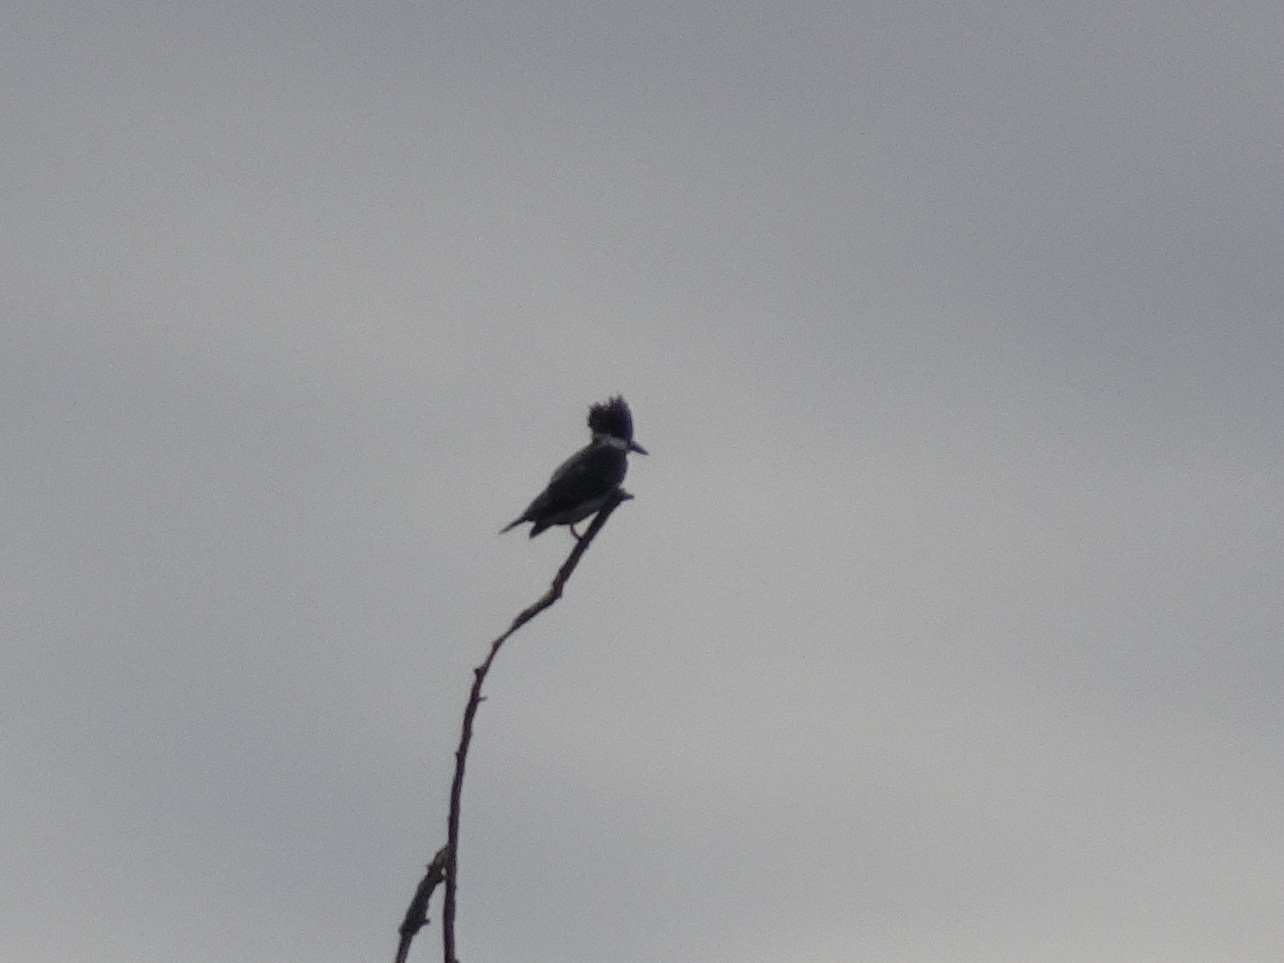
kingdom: Animalia
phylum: Chordata
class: Aves
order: Coraciiformes
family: Alcedinidae
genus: Megaceryle
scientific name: Megaceryle alcyon
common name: Belted kingfisher
